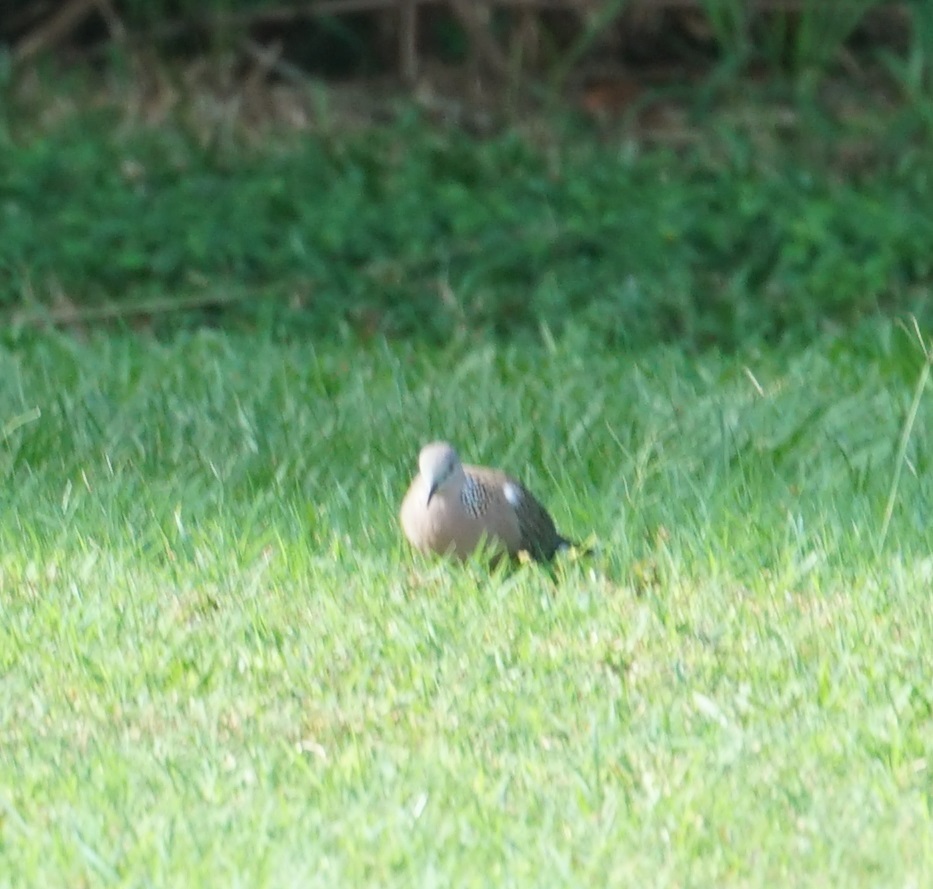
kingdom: Animalia
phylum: Chordata
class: Aves
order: Columbiformes
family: Columbidae
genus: Spilopelia
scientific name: Spilopelia chinensis
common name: Spotted dove
